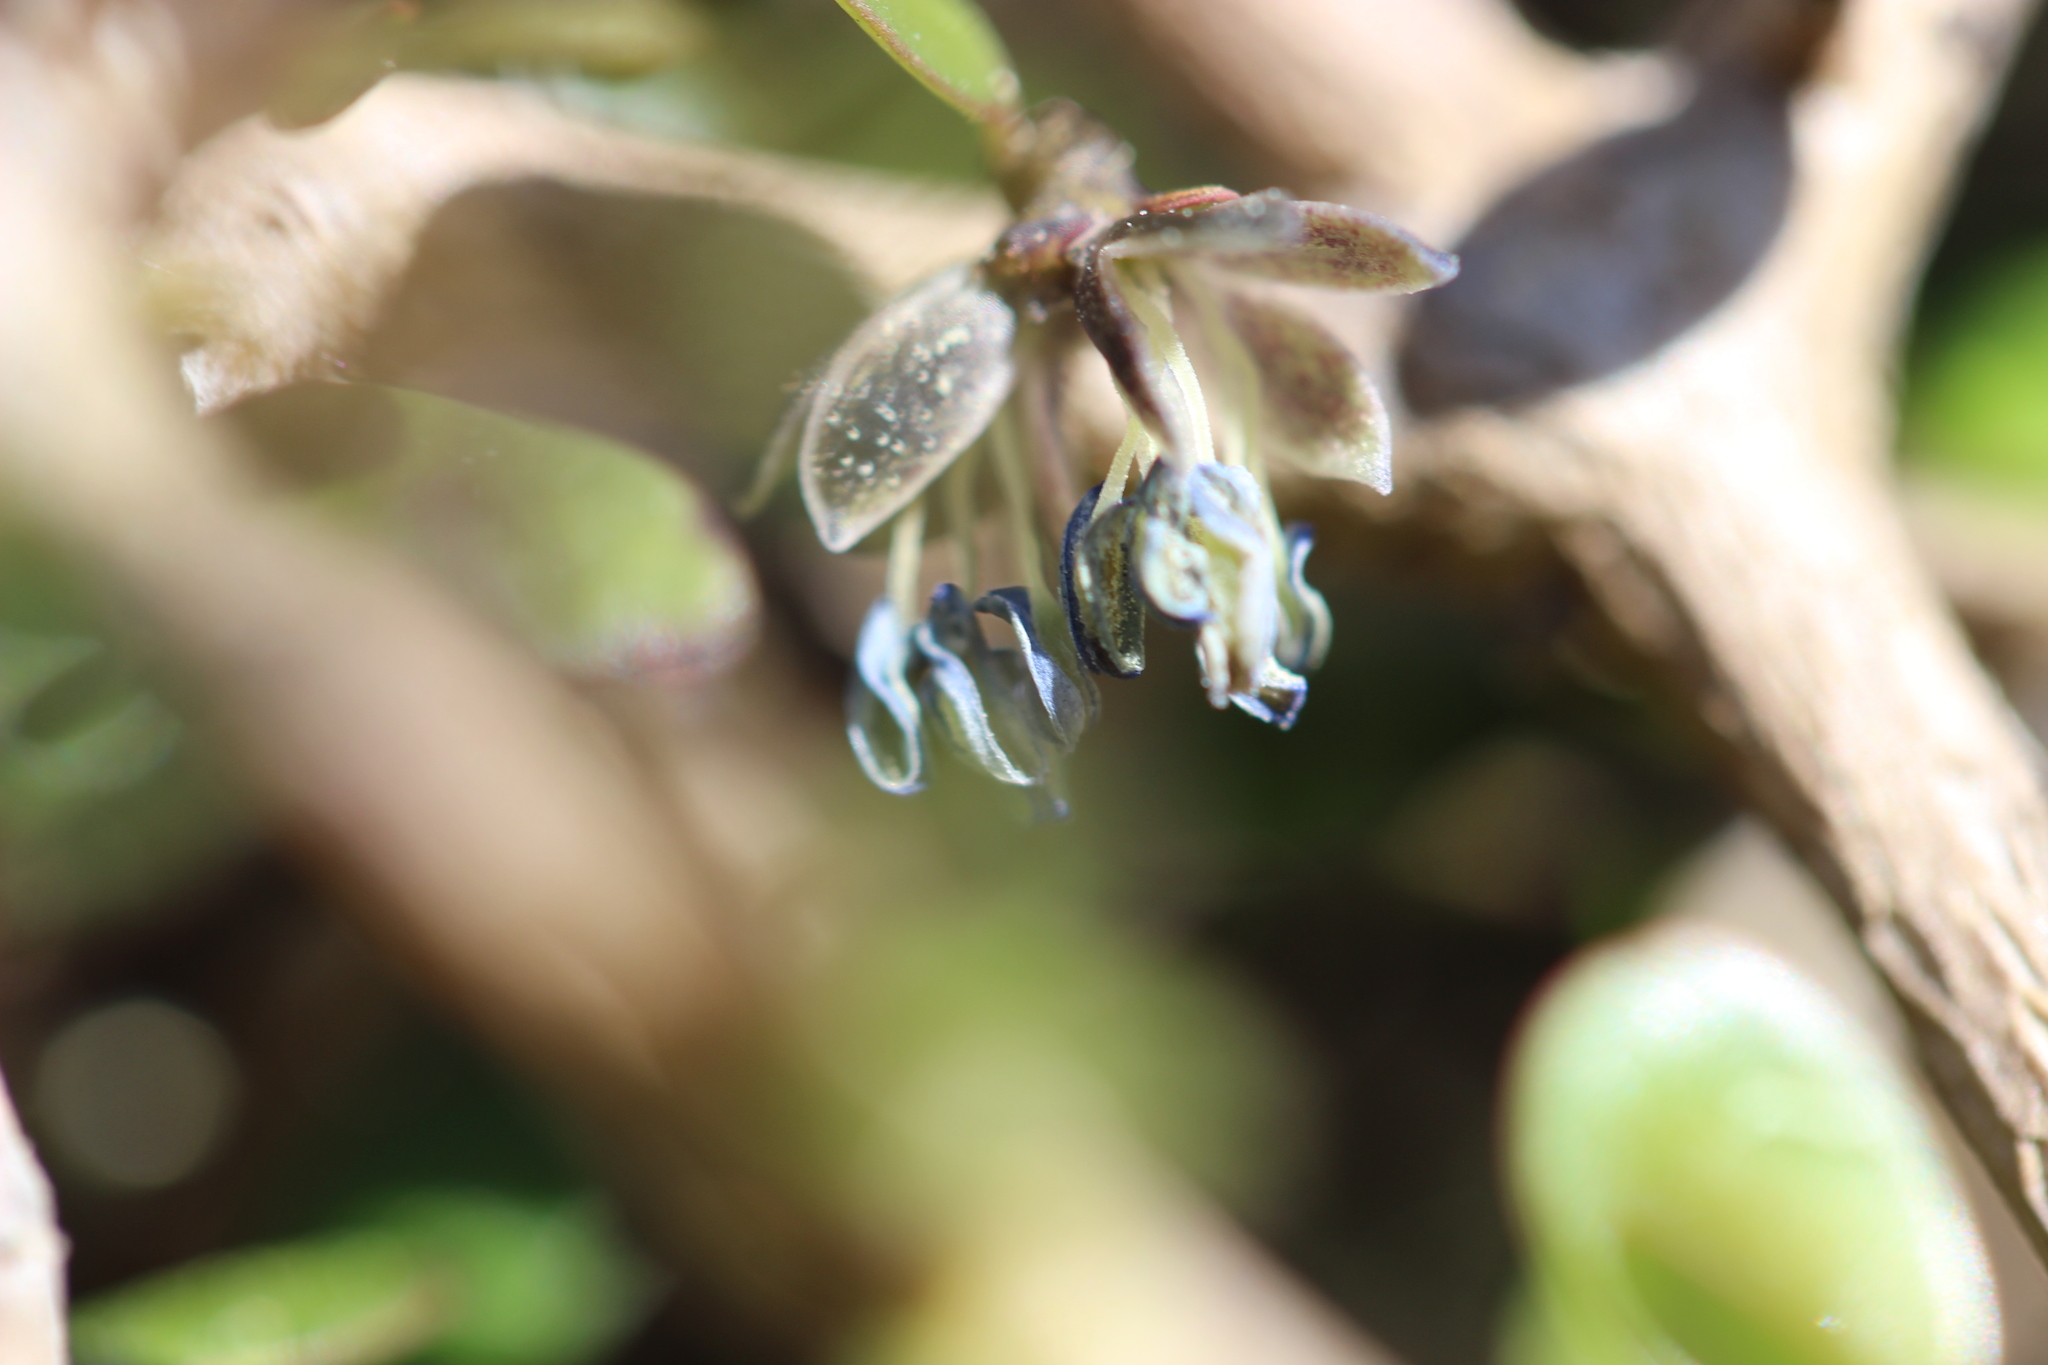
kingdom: Plantae
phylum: Tracheophyta
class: Magnoliopsida
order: Gentianales
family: Rubiaceae
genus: Coprosma
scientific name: Coprosma propinqua
